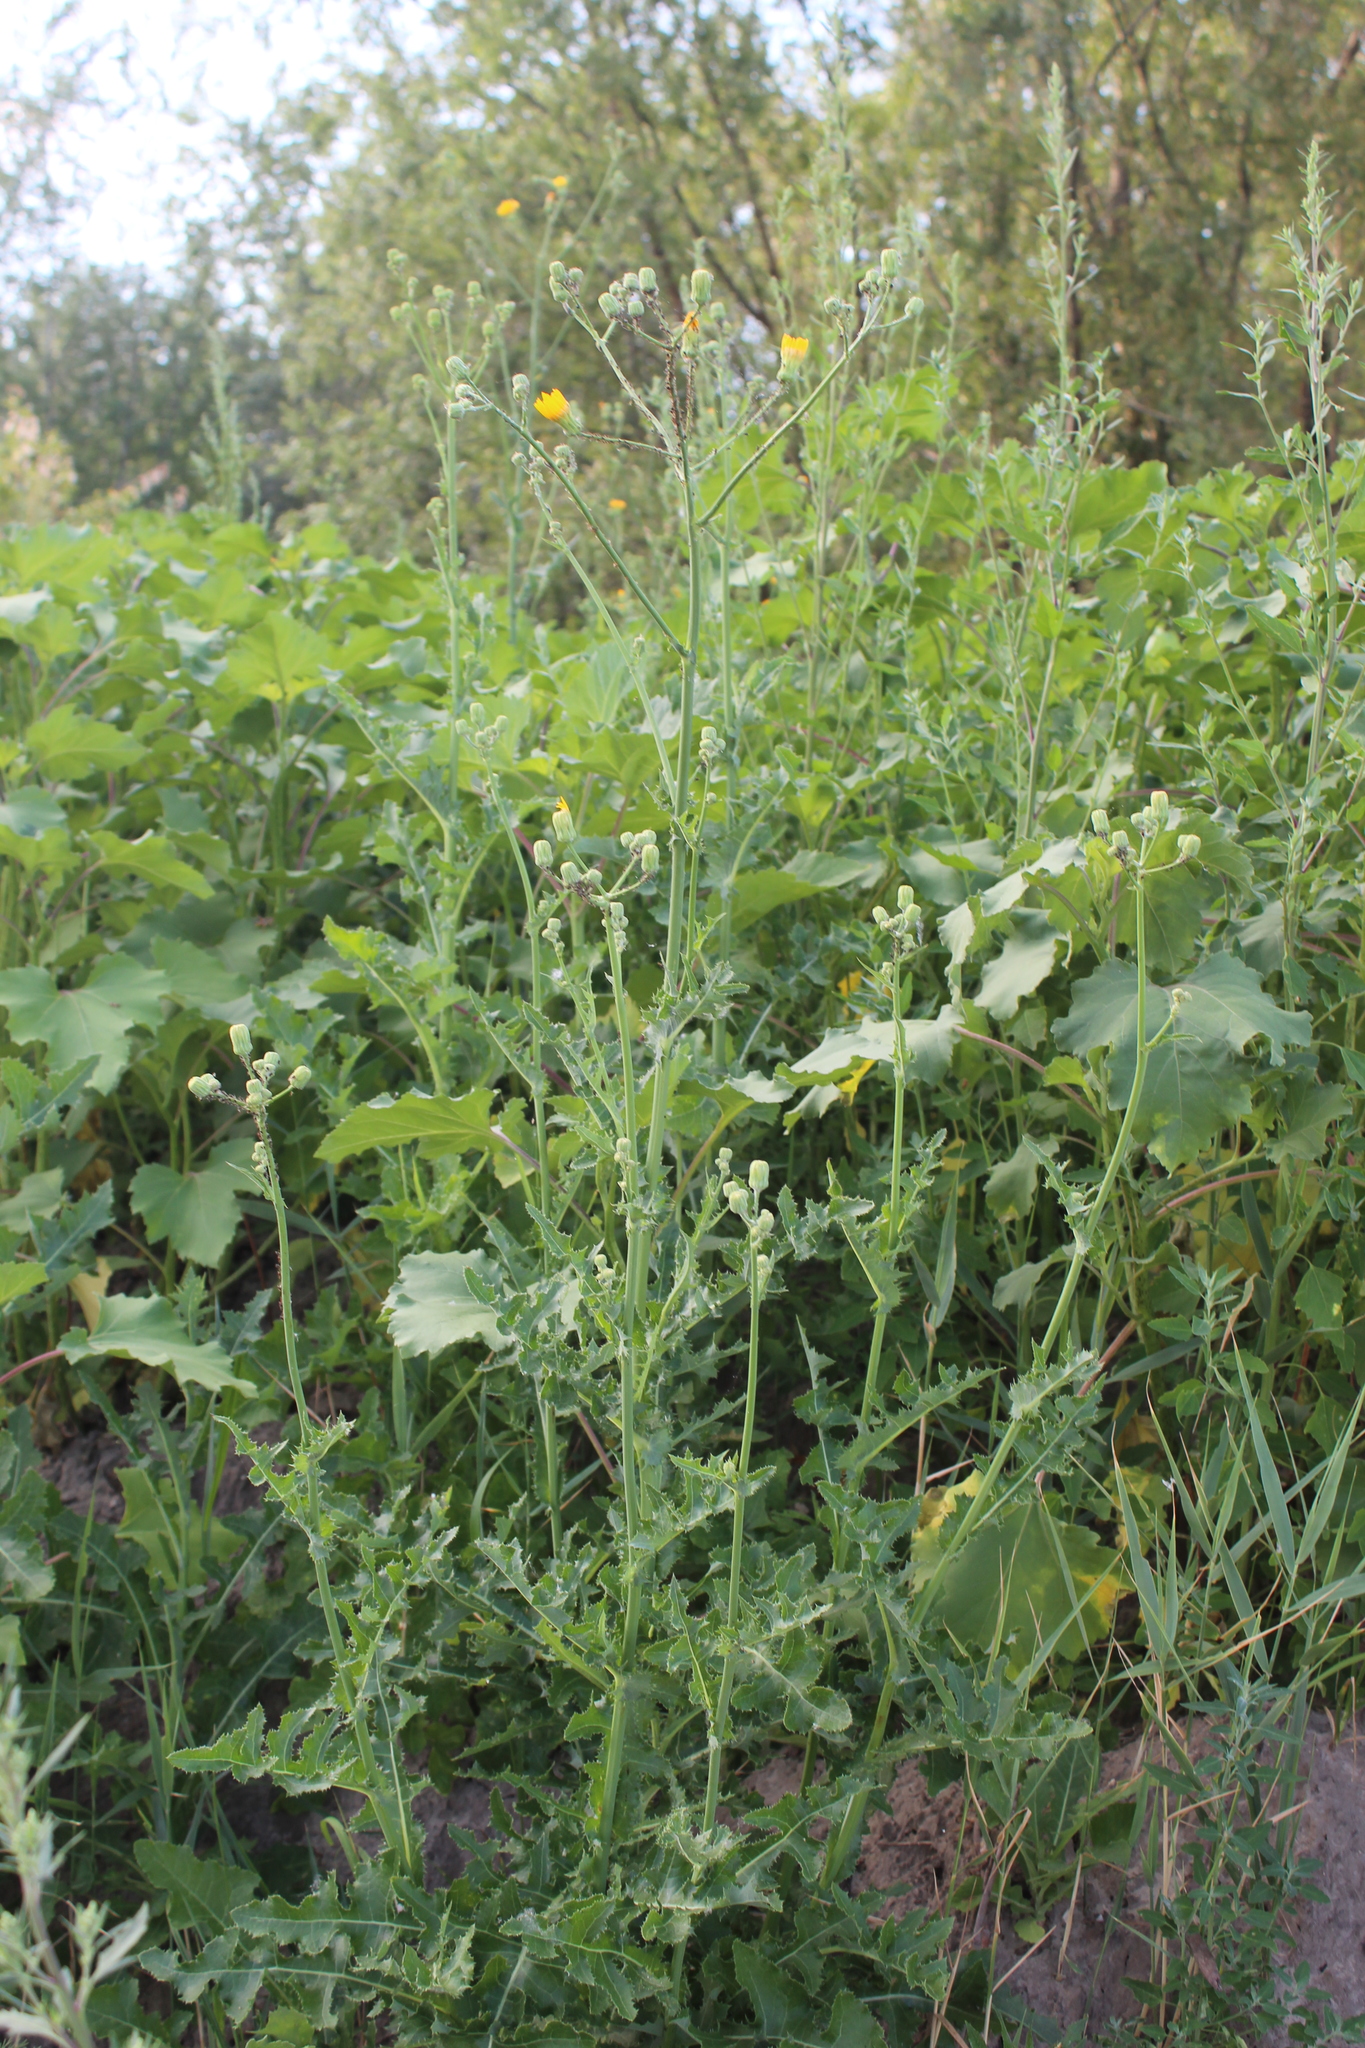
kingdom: Plantae
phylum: Tracheophyta
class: Magnoliopsida
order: Asterales
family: Asteraceae
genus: Sonchus
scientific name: Sonchus arvensis
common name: Perennial sow-thistle
